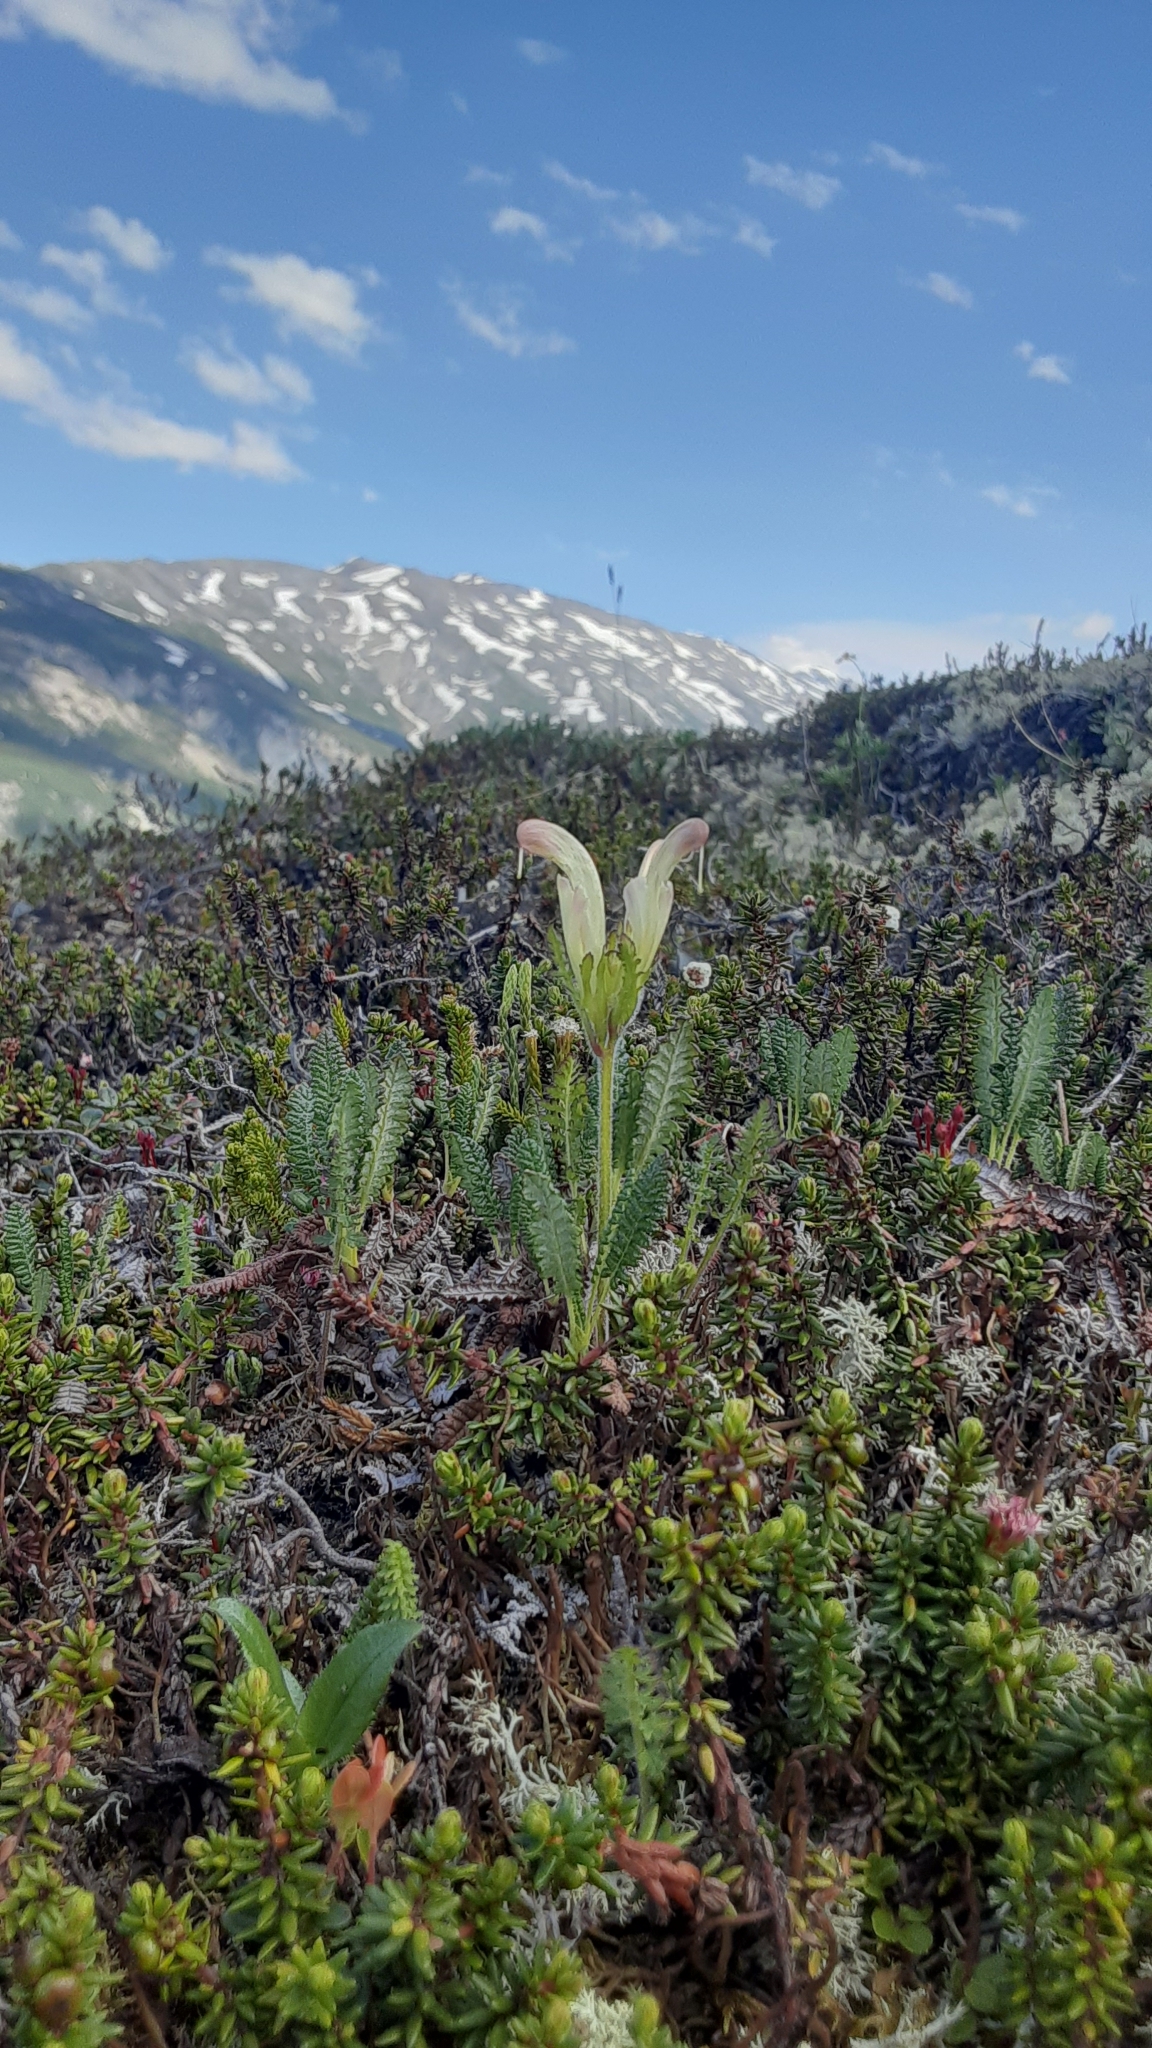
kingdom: Plantae
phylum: Tracheophyta
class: Magnoliopsida
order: Lamiales
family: Orobanchaceae
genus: Pedicularis
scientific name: Pedicularis capitata
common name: Capitate lousewort
